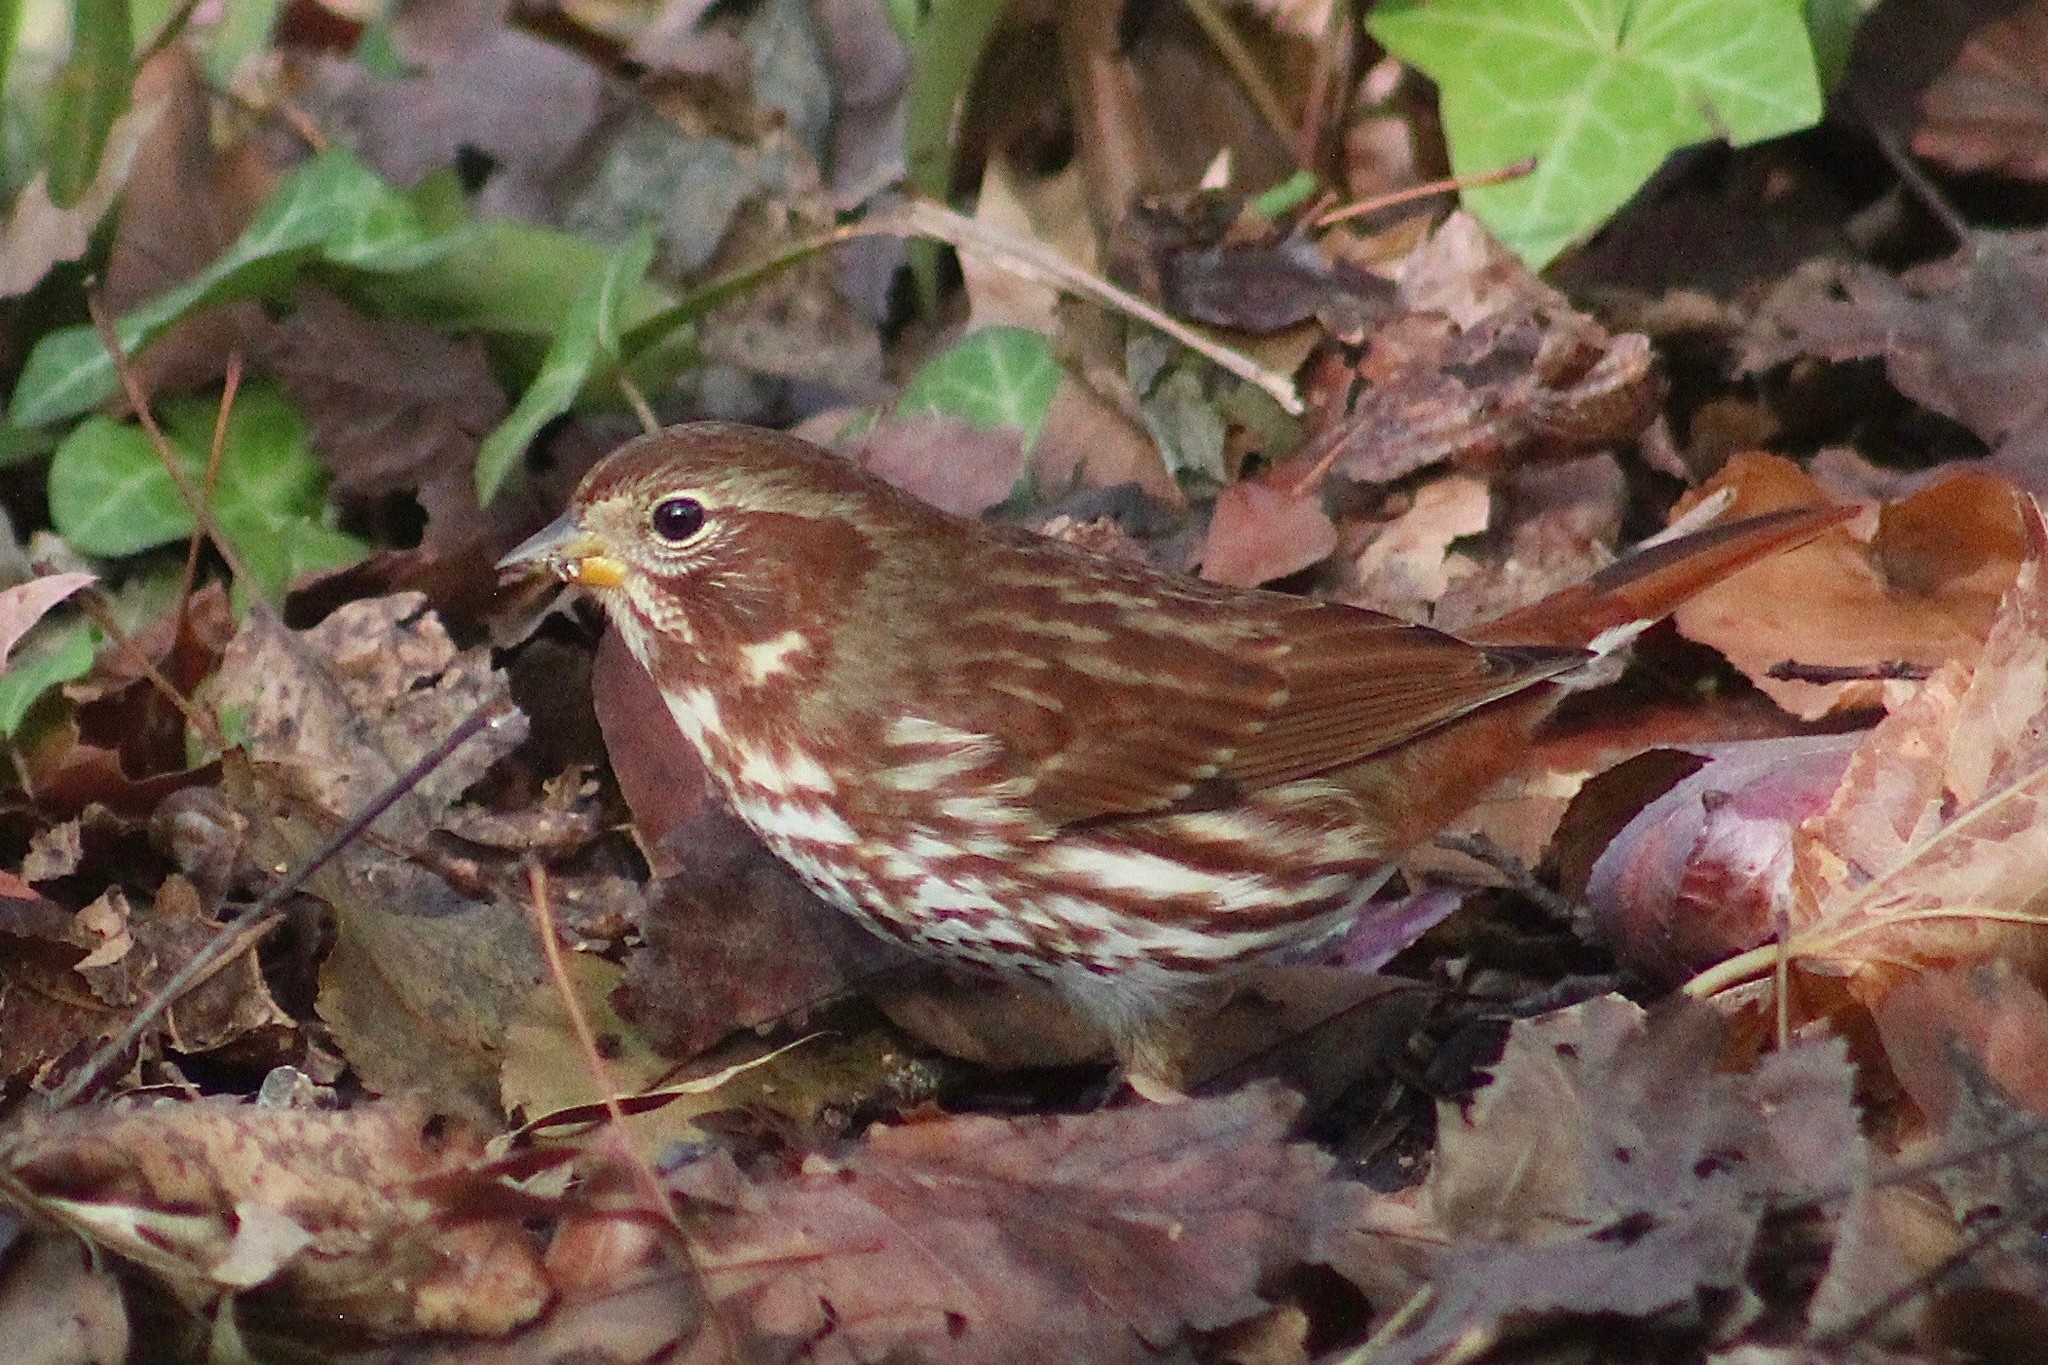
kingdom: Animalia
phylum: Chordata
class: Aves
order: Passeriformes
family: Passerellidae
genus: Passerella
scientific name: Passerella iliaca
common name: Fox sparrow
